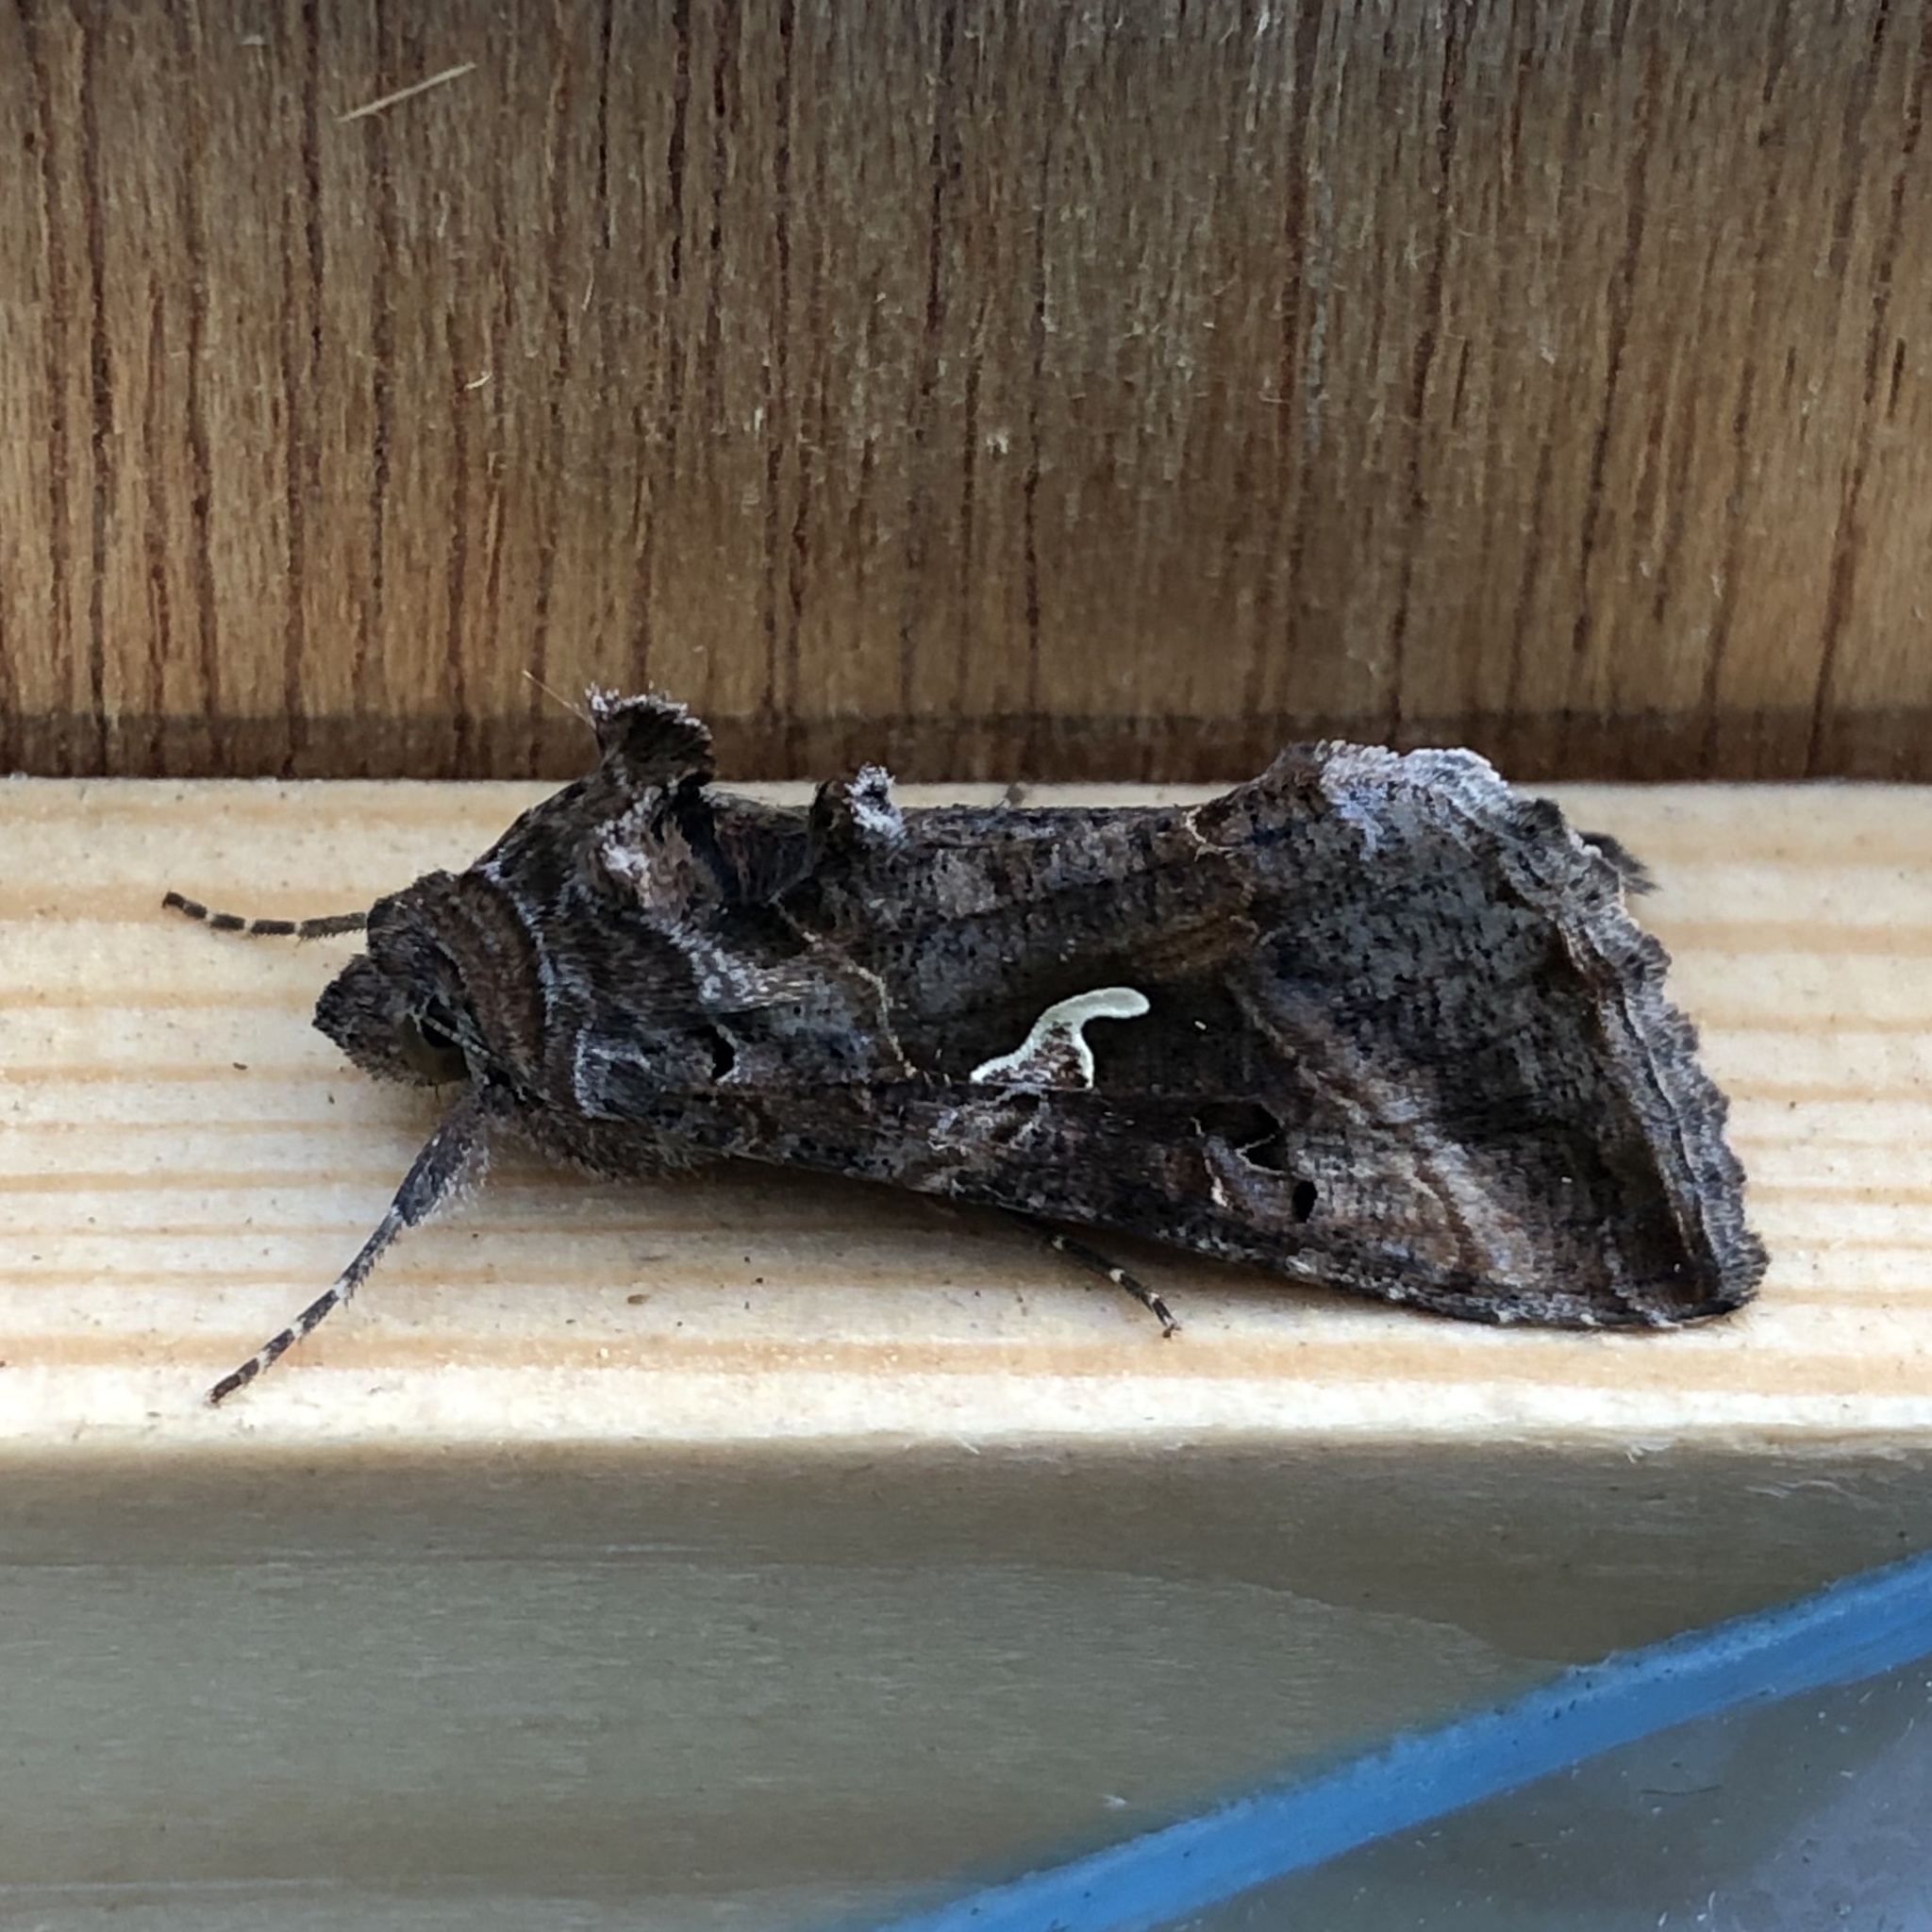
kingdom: Animalia
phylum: Arthropoda
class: Insecta
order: Lepidoptera
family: Noctuidae
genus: Autographa
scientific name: Autographa gamma
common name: Silver y
